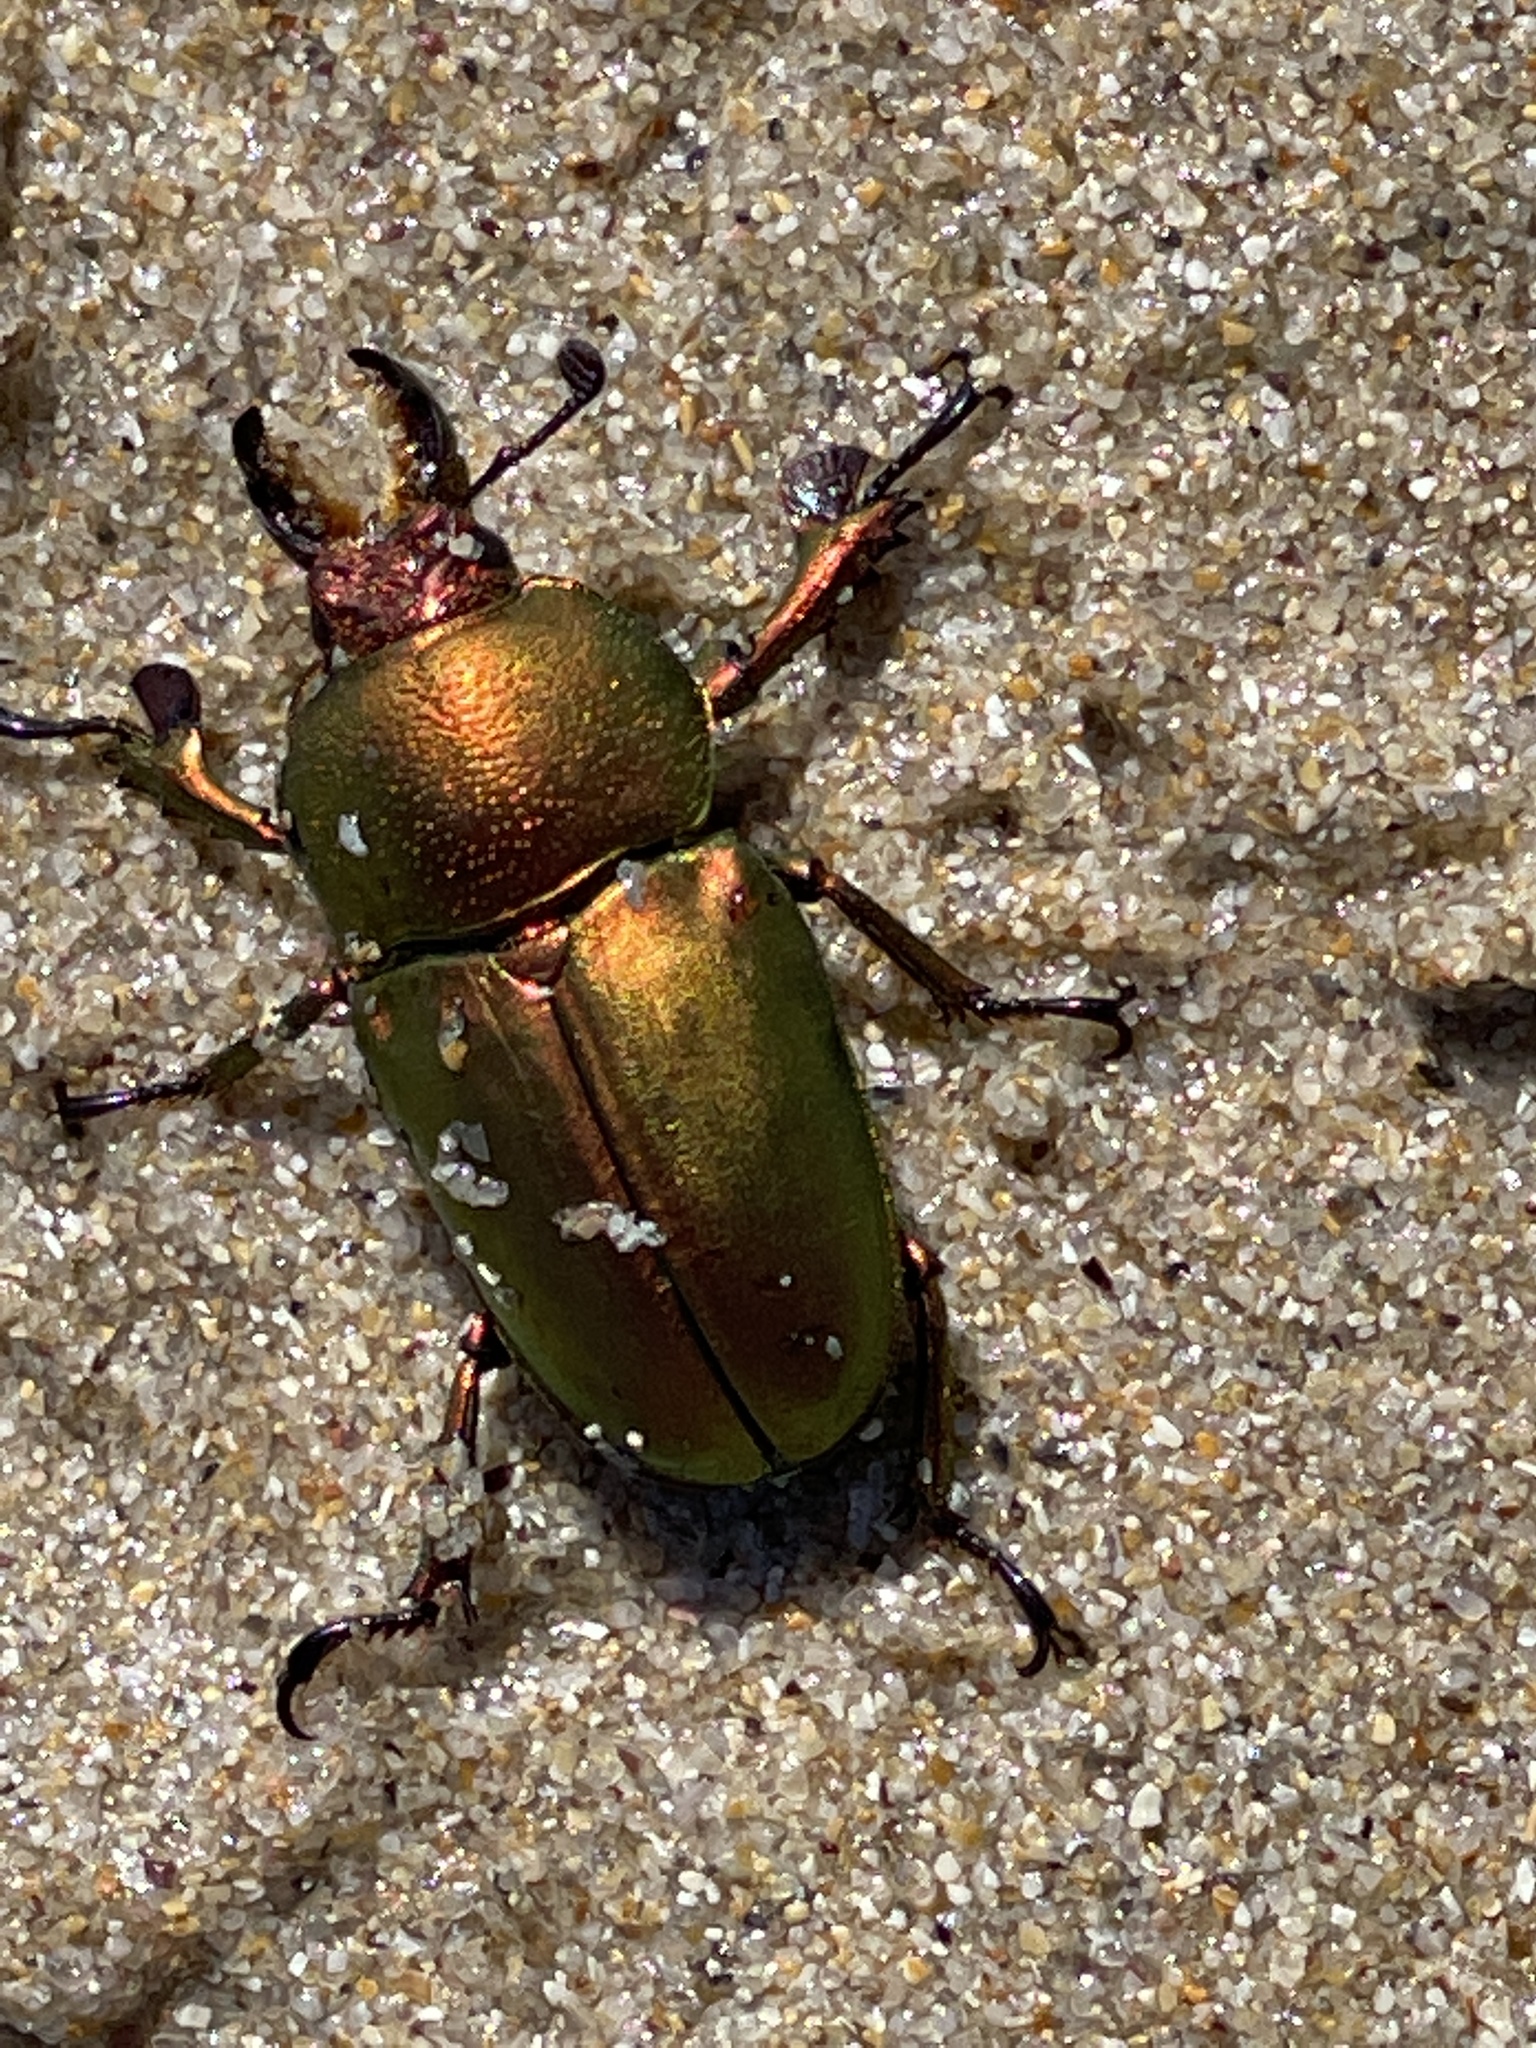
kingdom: Animalia
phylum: Arthropoda
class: Insecta
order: Coleoptera
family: Lucanidae
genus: Lamprima
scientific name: Lamprima aurata
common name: Golden stag beetle
